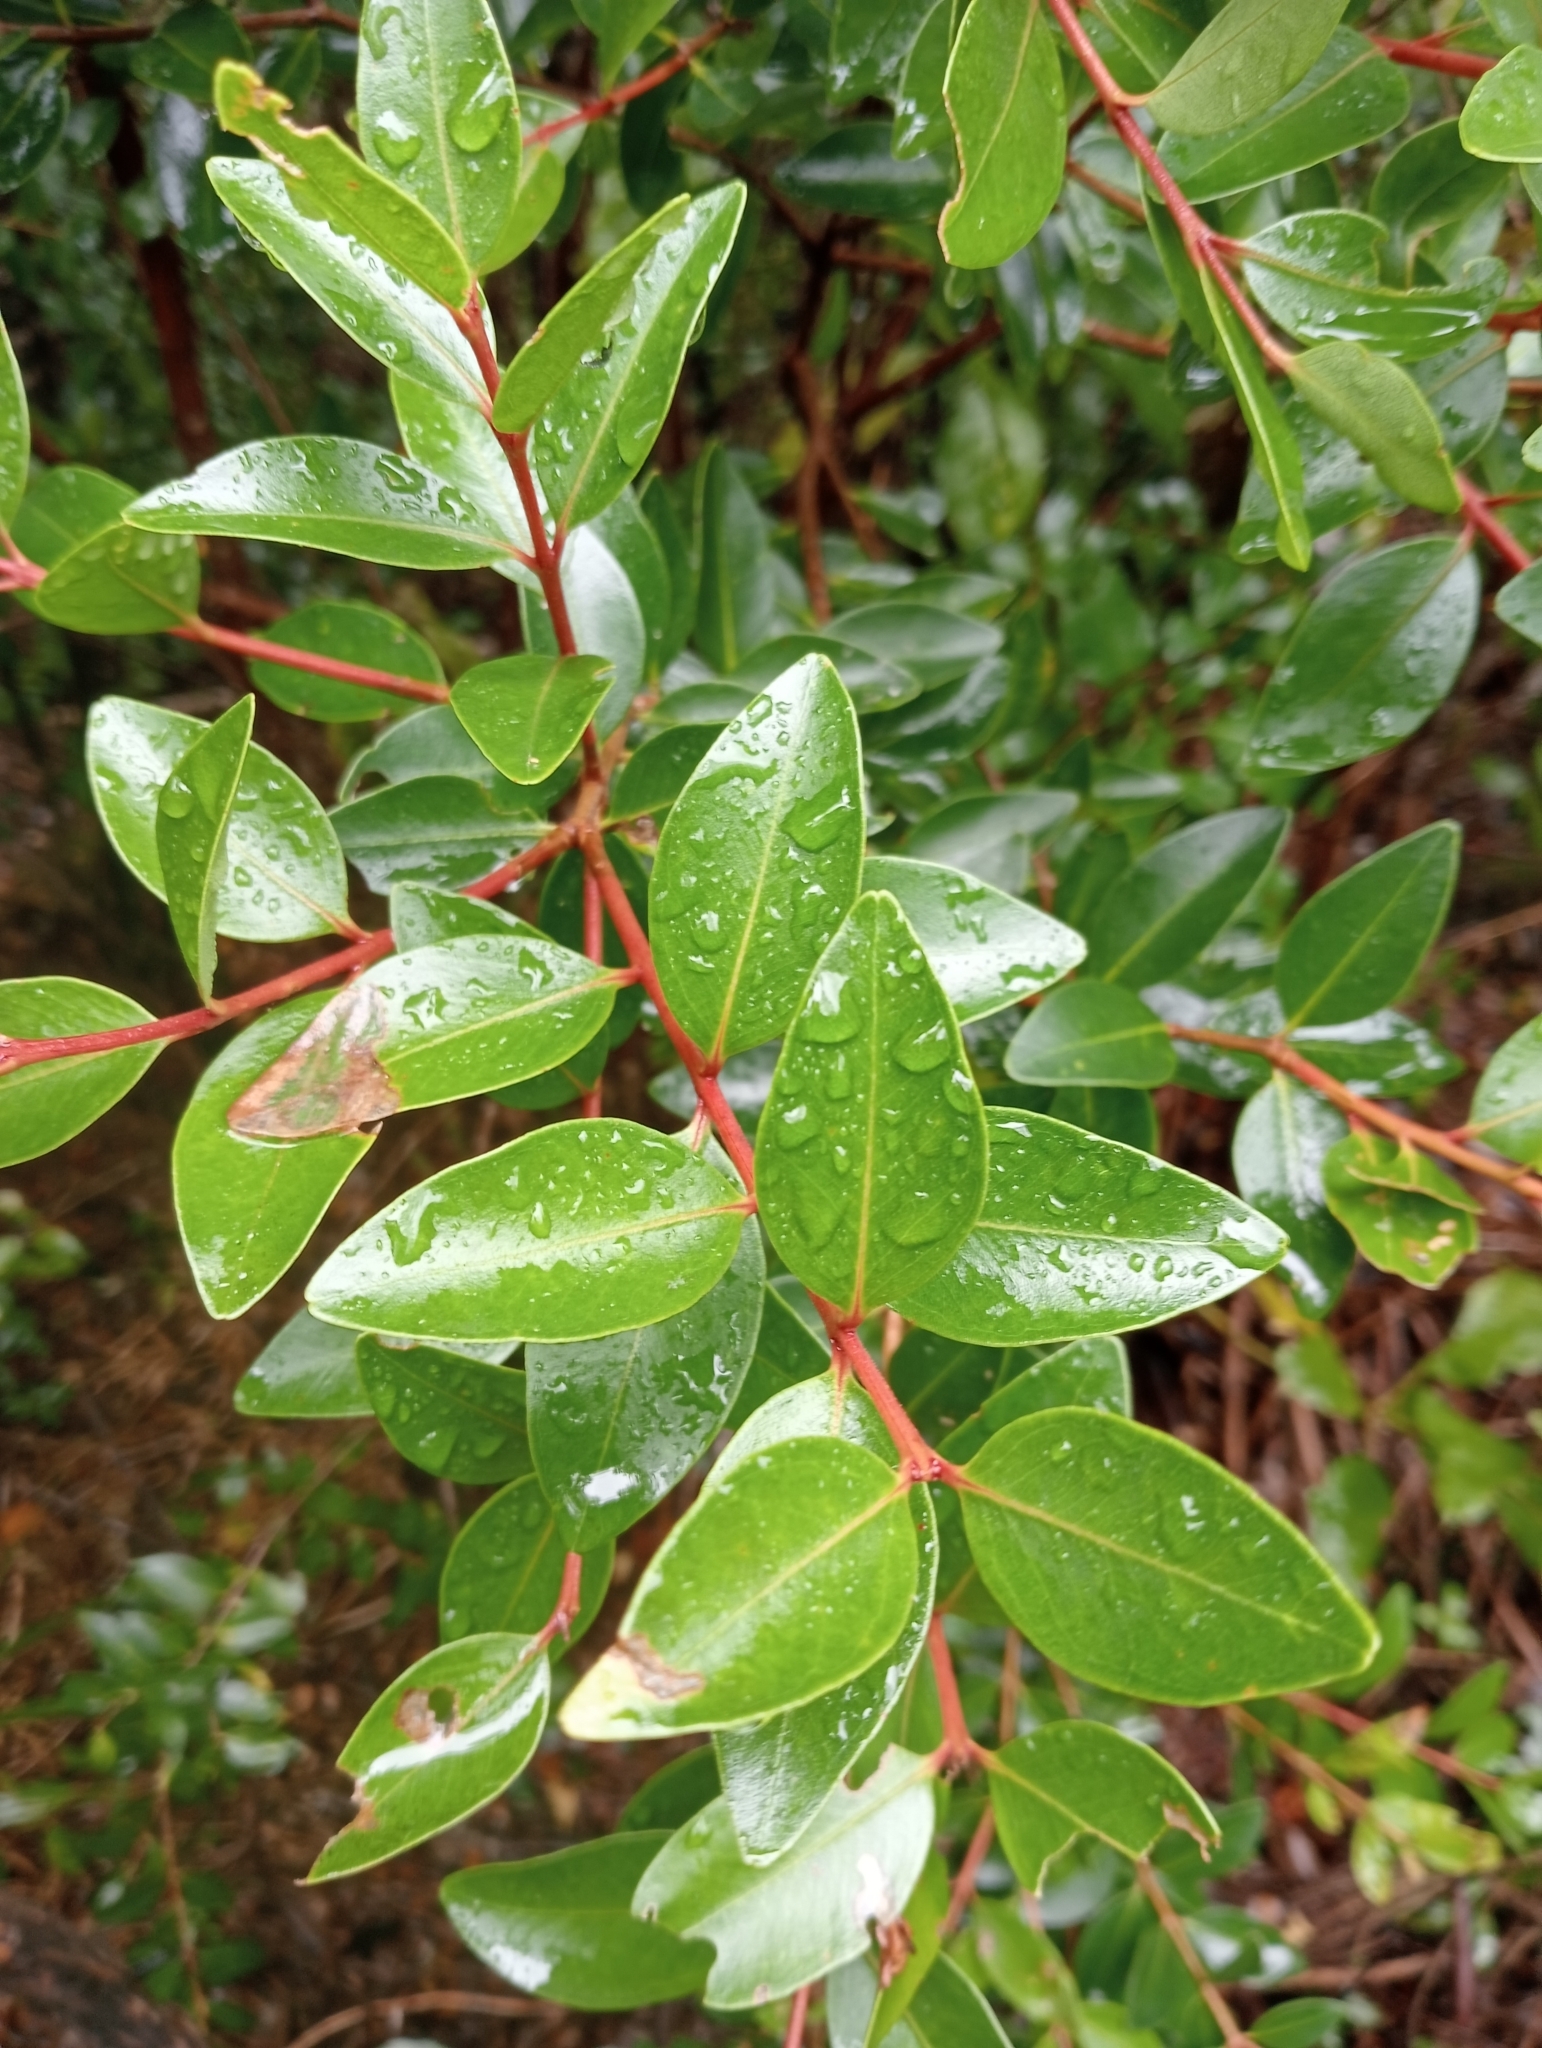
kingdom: Plantae
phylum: Tracheophyta
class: Magnoliopsida
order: Myrtales
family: Myrtaceae
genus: Metrosideros
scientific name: Metrosideros robusta
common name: Northern rata
